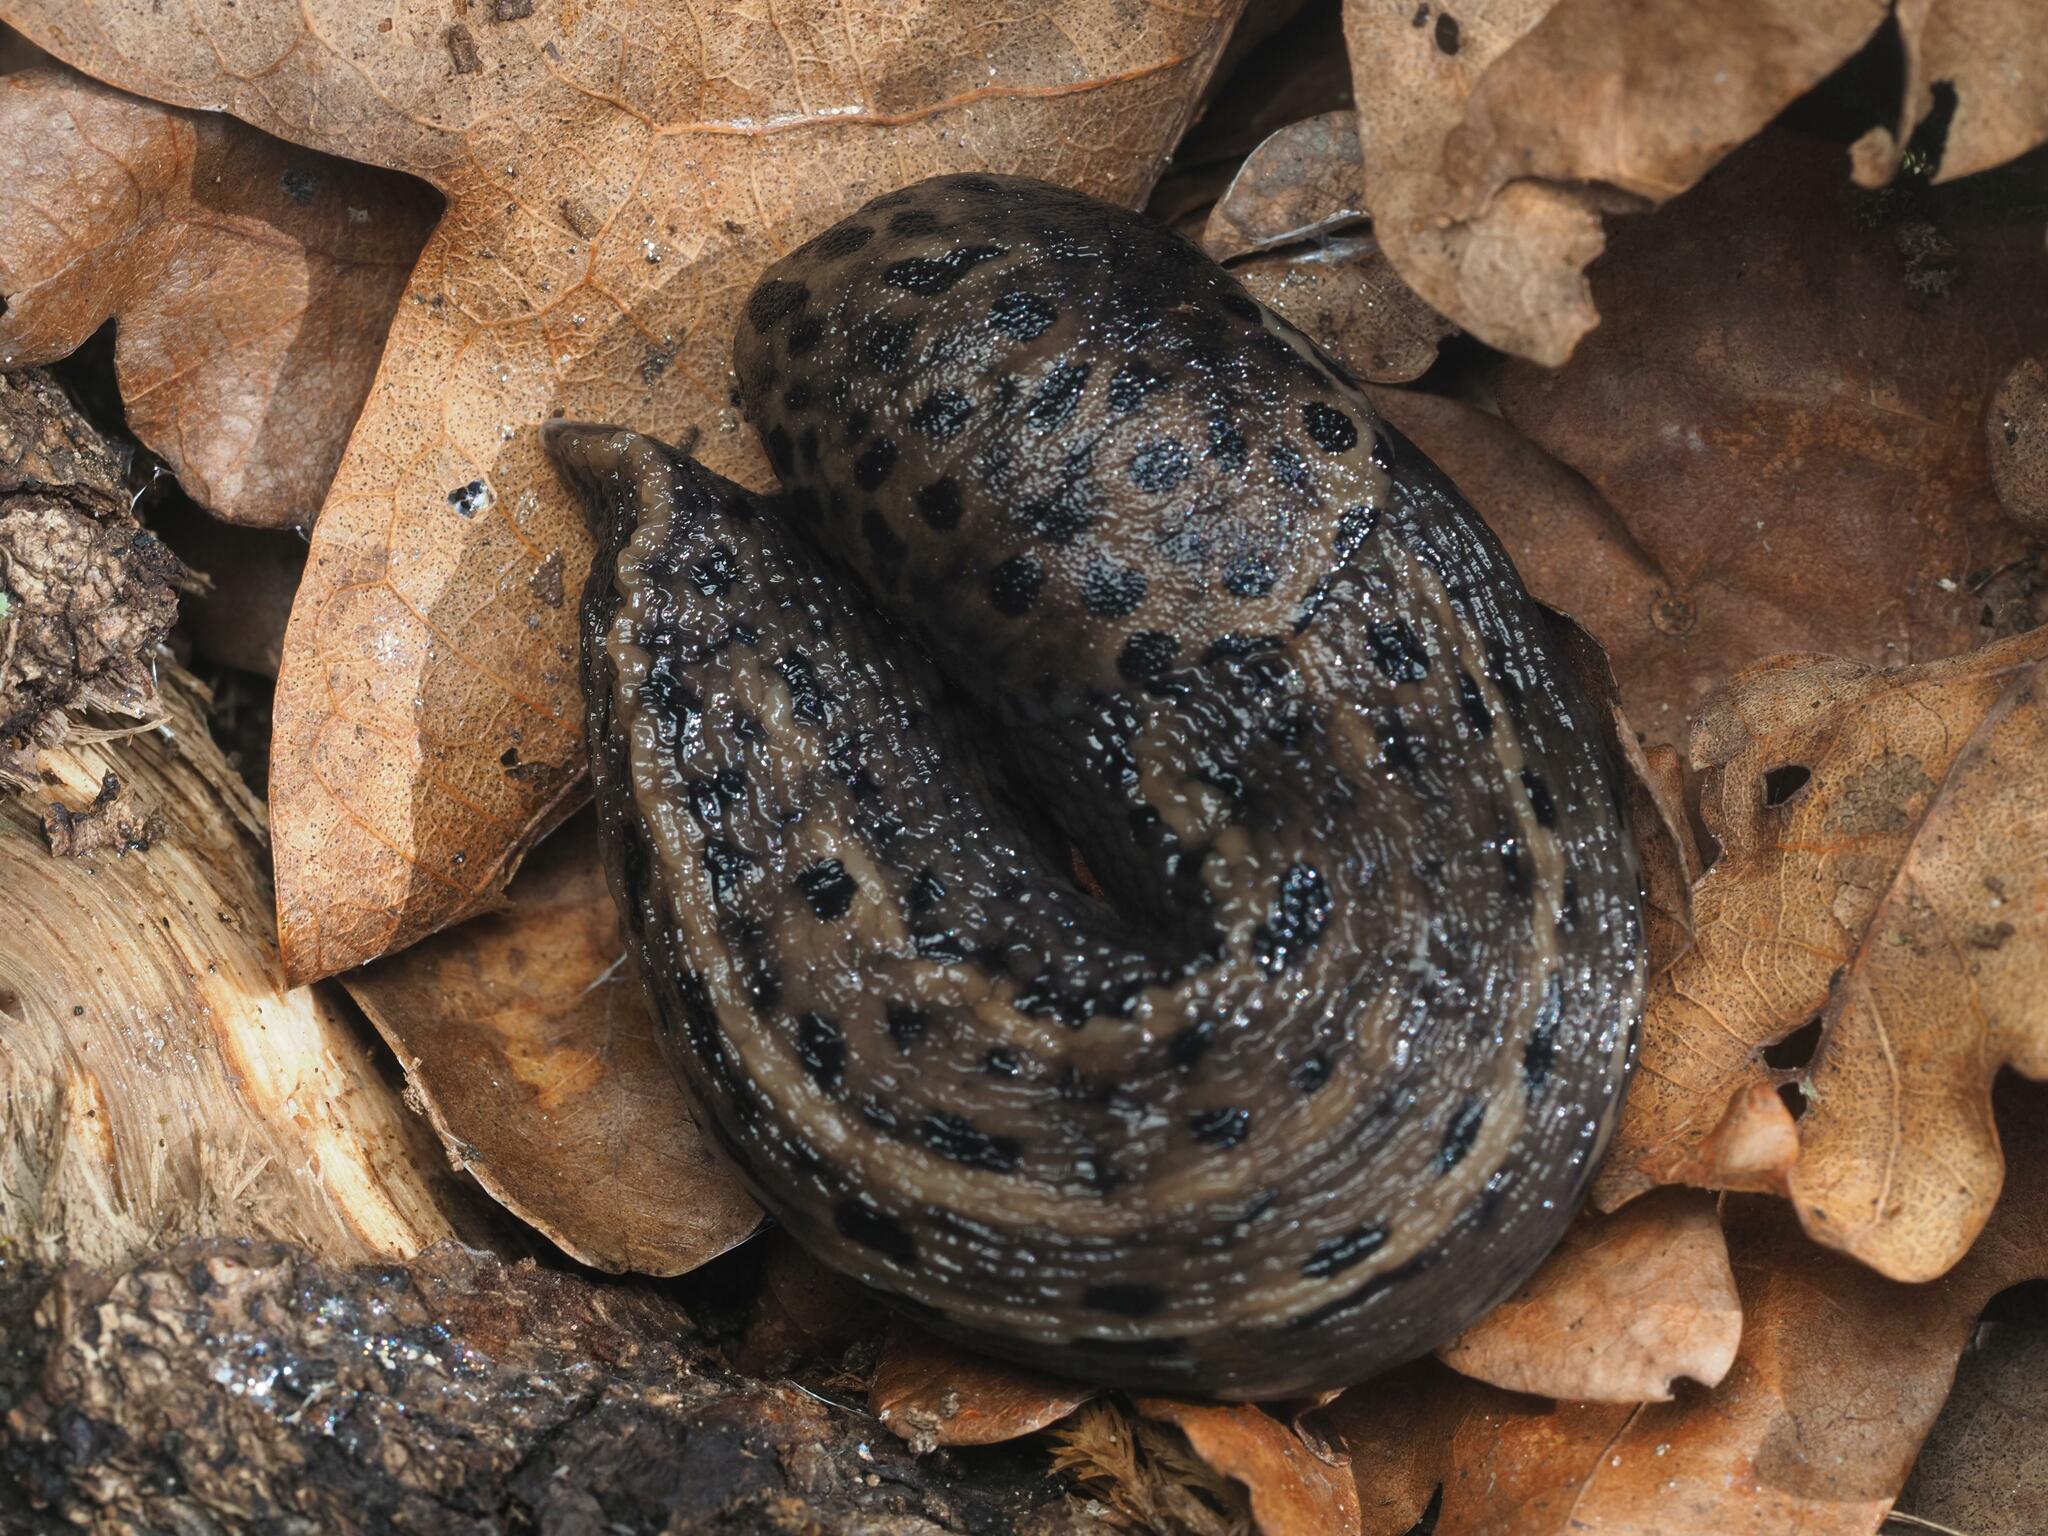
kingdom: Animalia
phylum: Mollusca
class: Gastropoda
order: Stylommatophora
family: Limacidae
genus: Limax
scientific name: Limax maximus
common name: Great grey slug
